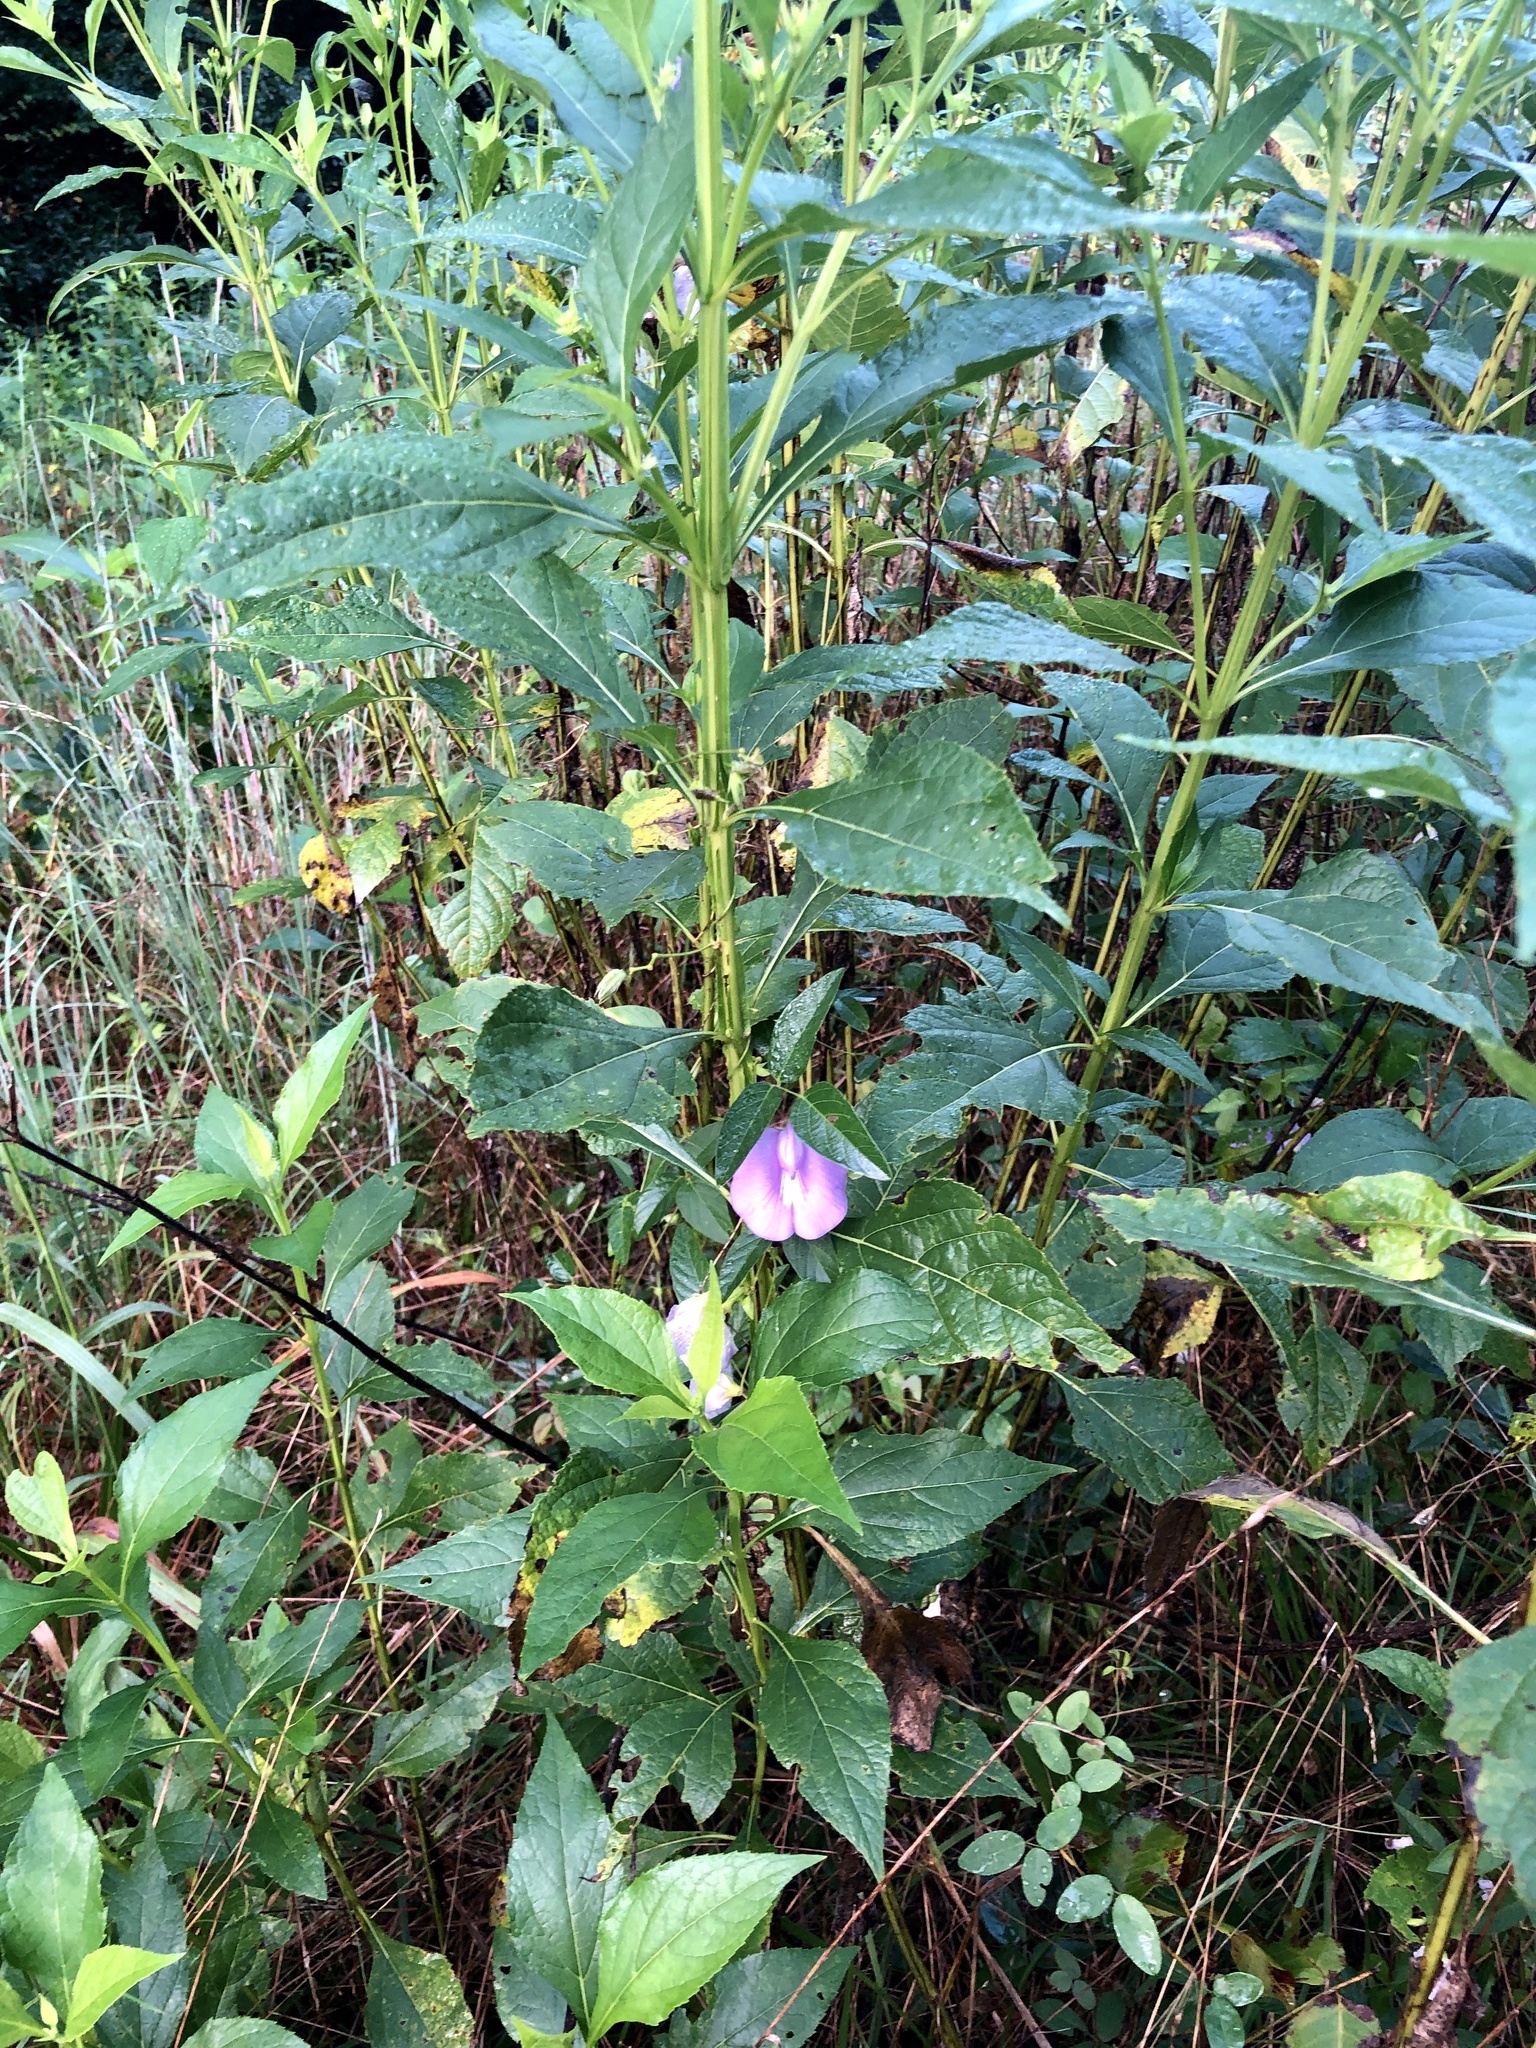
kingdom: Plantae
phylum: Tracheophyta
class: Magnoliopsida
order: Fabales
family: Fabaceae
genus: Centrosema
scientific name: Centrosema virginianum
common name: Butterfly-pea
